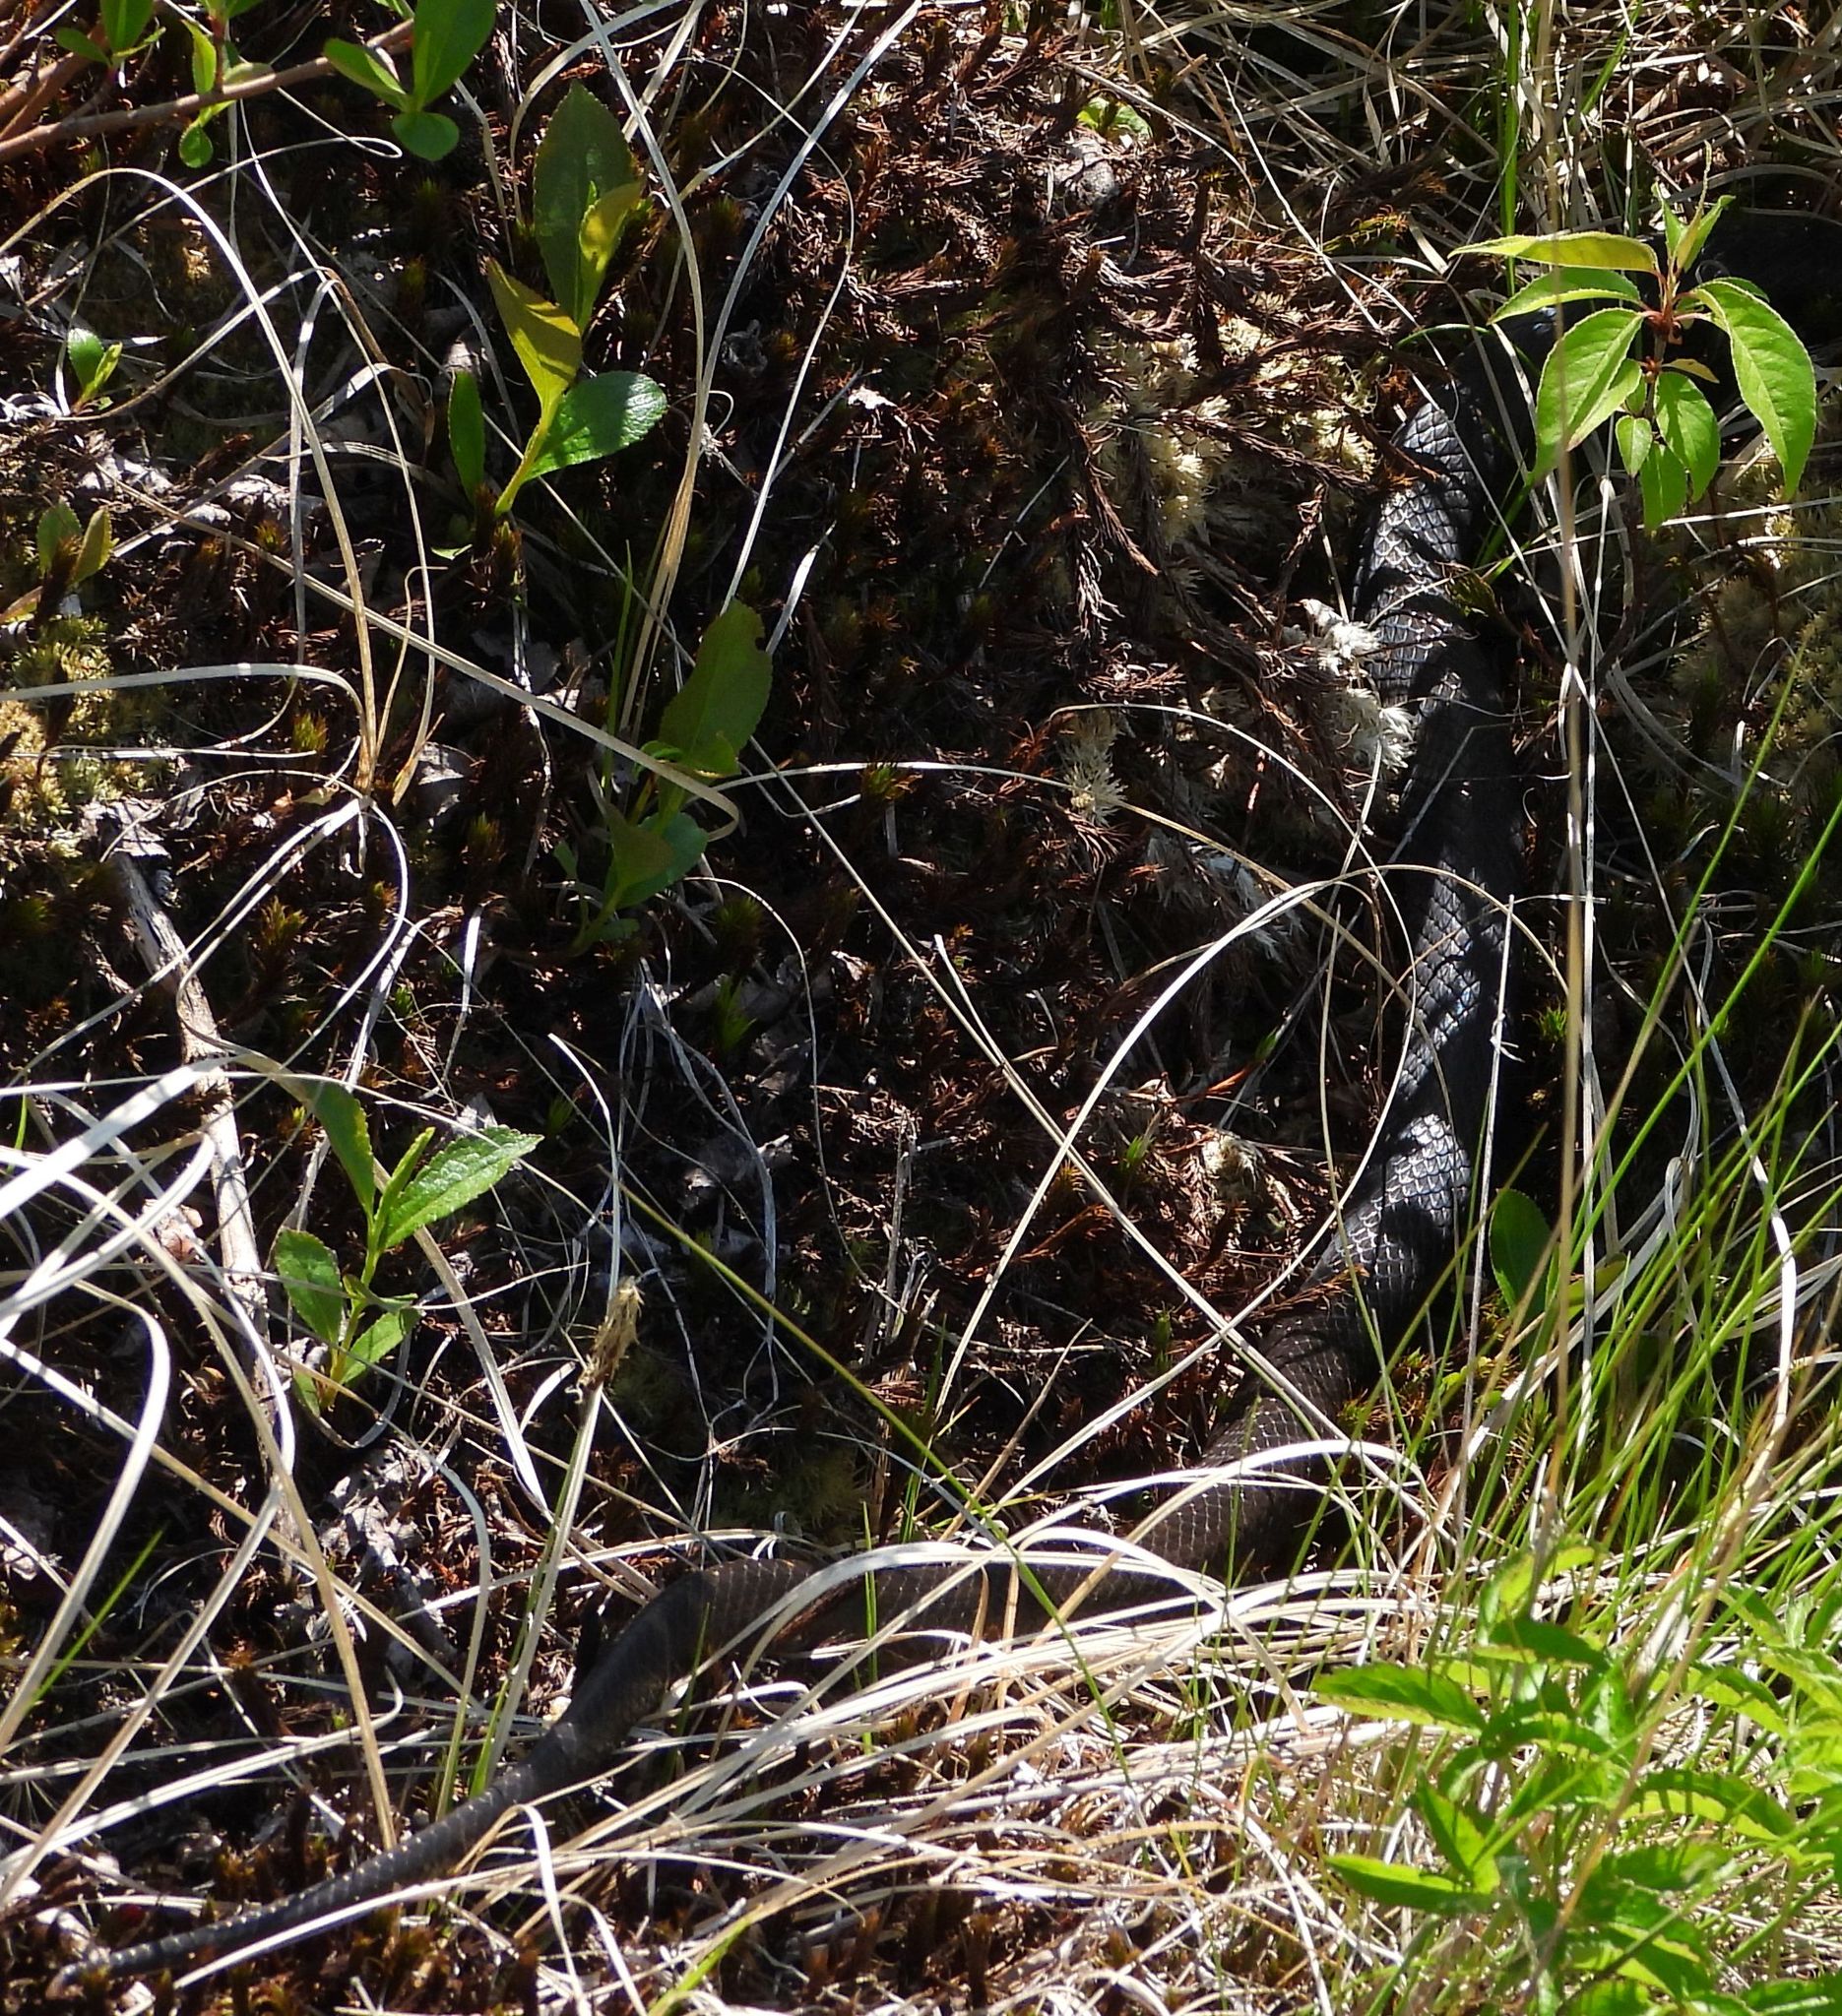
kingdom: Animalia
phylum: Chordata
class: Squamata
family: Colubridae
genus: Pantherophis
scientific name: Pantherophis spiloides
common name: Gray rat snake
